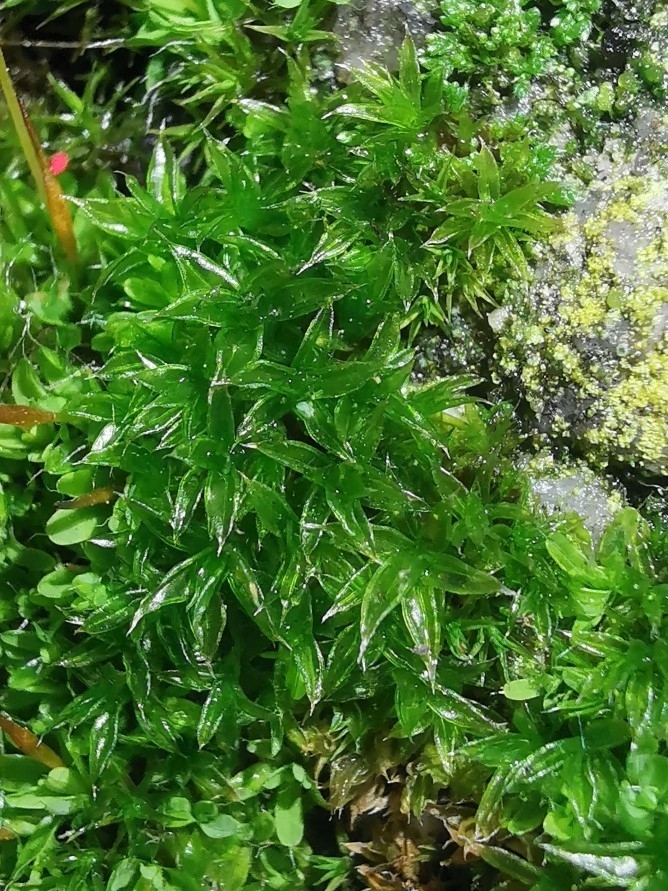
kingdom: Plantae
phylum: Bryophyta
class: Bryopsida
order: Orthotrichales
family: Orthotrichaceae
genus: Orthotrichum
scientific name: Orthotrichum diaphanum
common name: White-tipped bristle-moss
